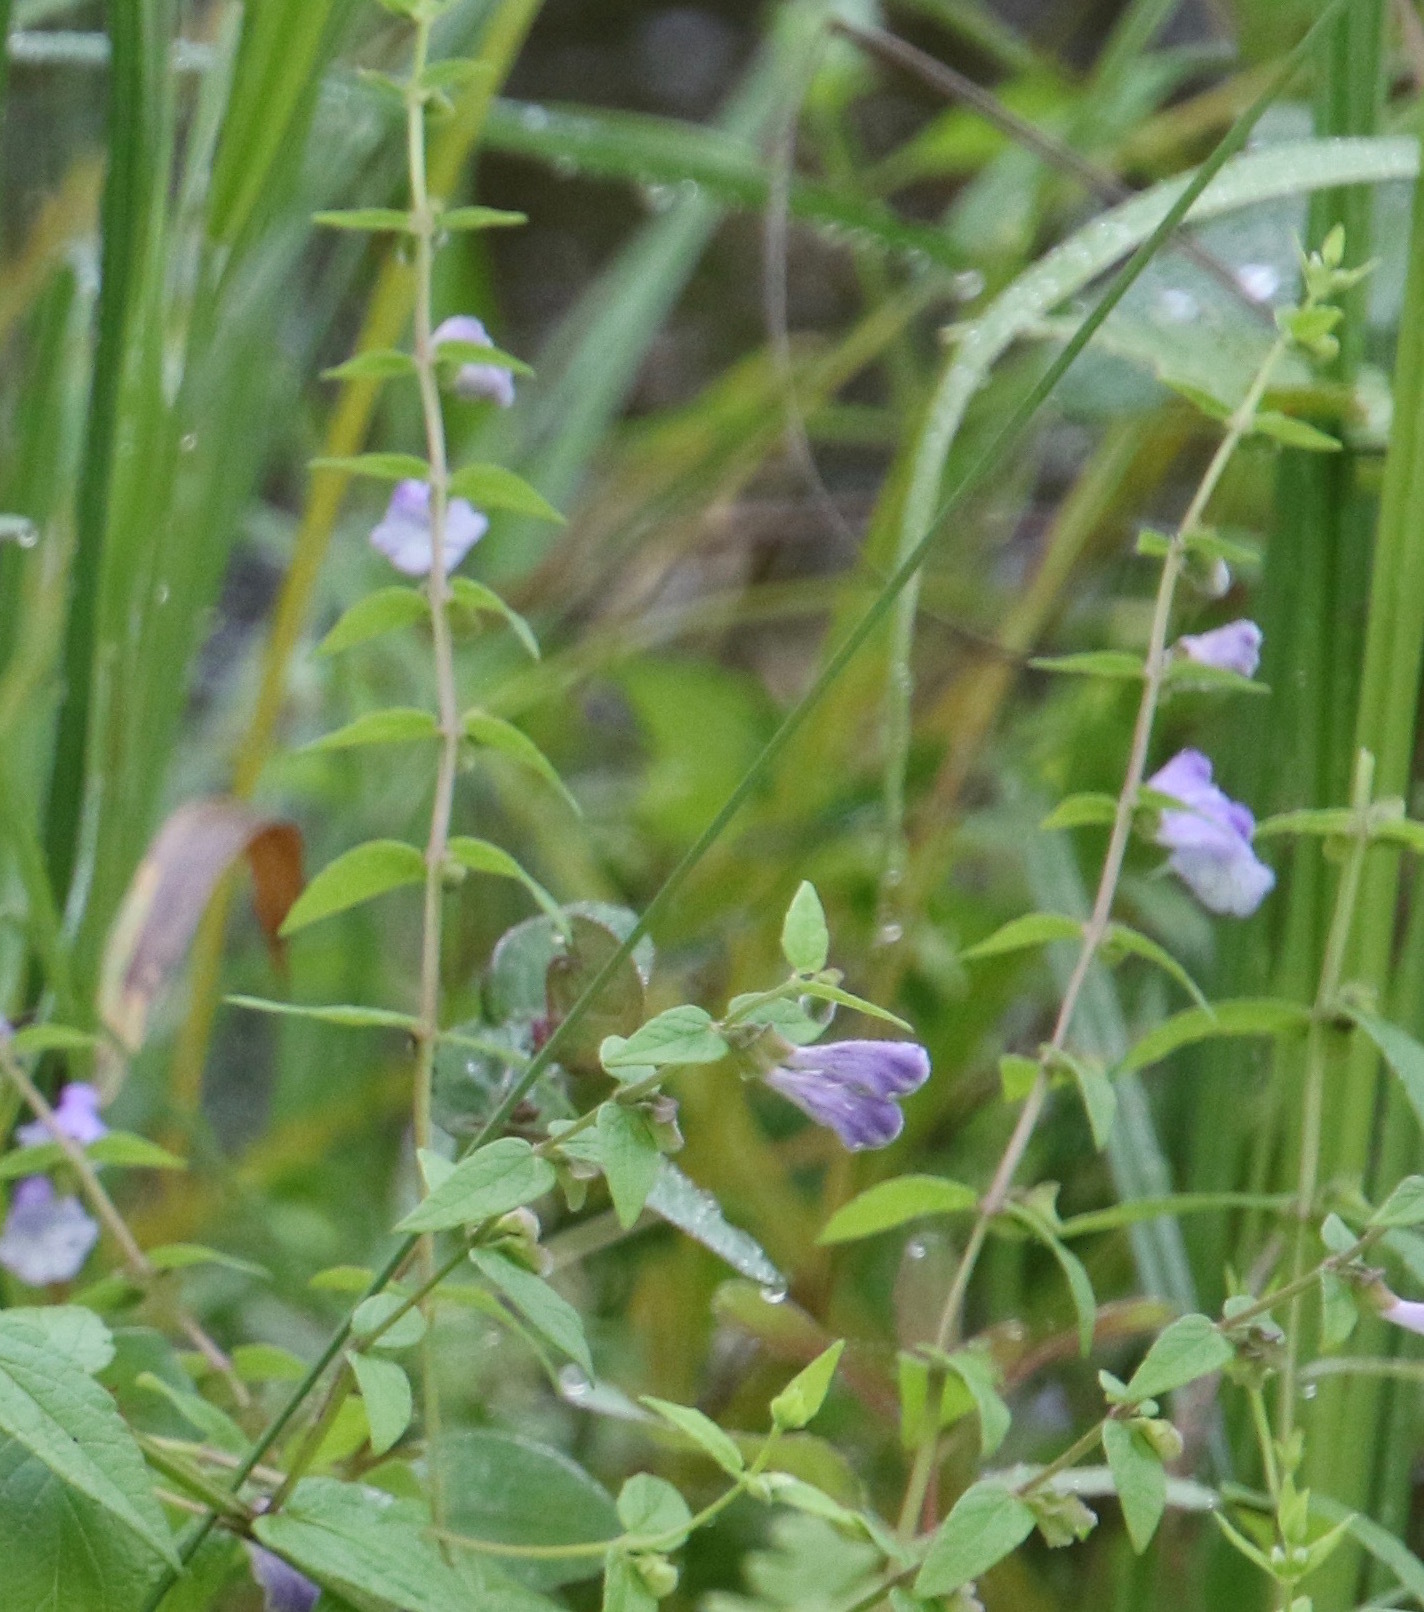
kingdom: Plantae
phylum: Tracheophyta
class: Magnoliopsida
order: Lamiales
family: Lamiaceae
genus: Scutellaria
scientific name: Scutellaria galericulata
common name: Skullcap
